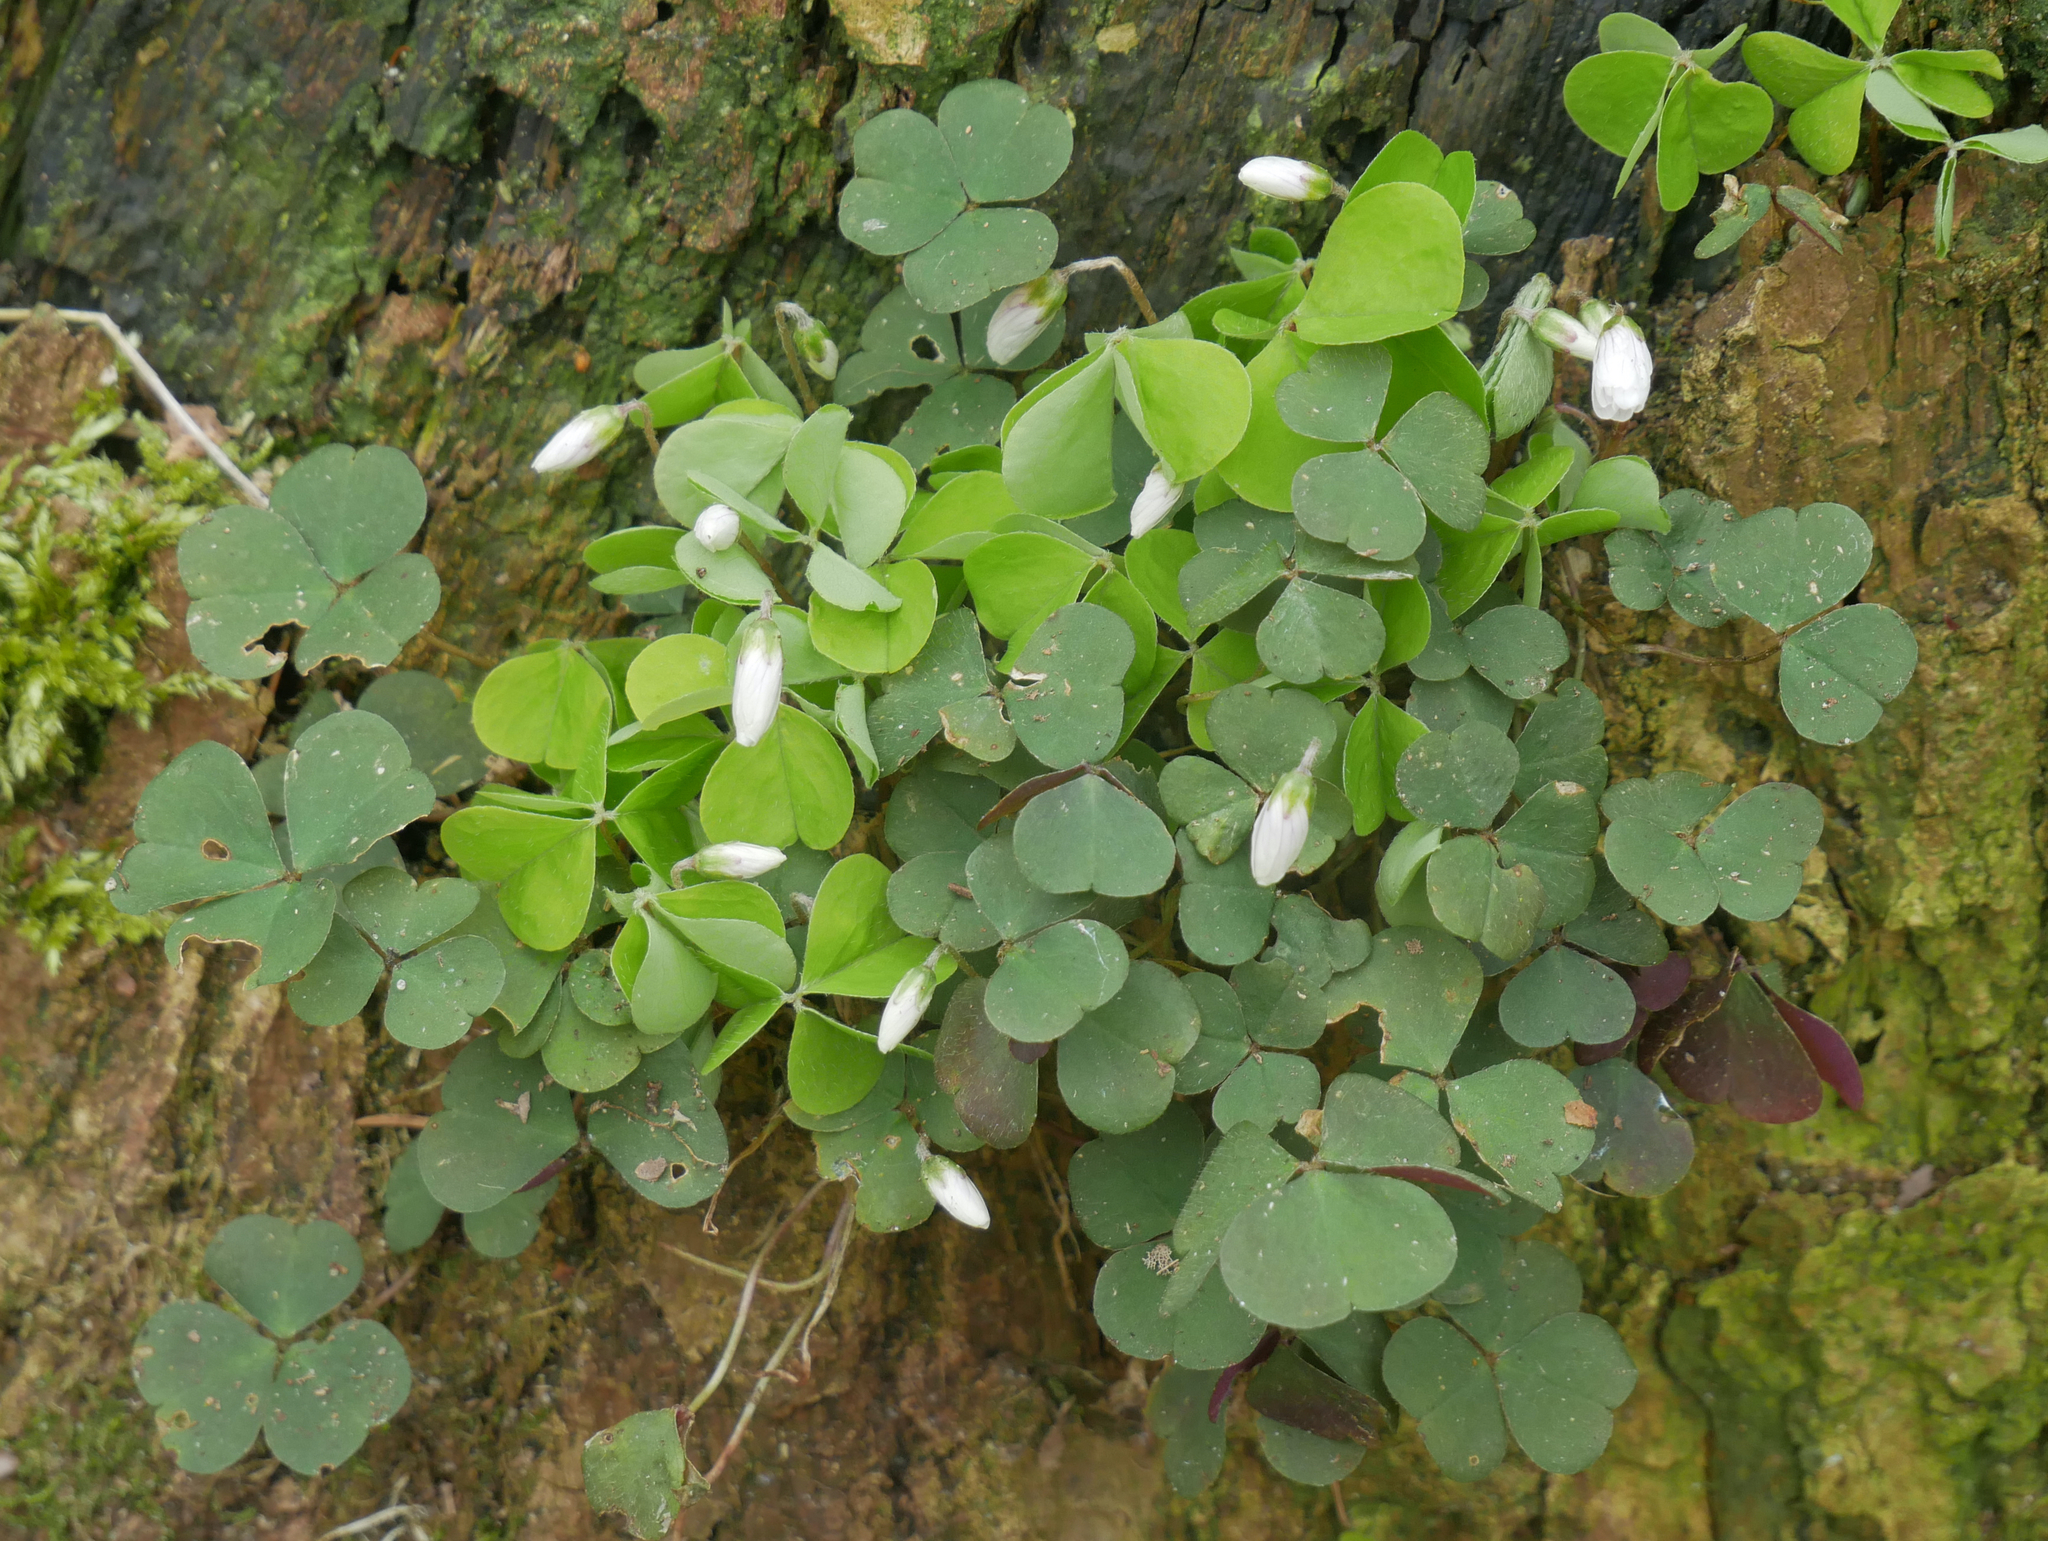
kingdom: Plantae
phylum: Tracheophyta
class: Magnoliopsida
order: Oxalidales
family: Oxalidaceae
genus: Oxalis
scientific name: Oxalis acetosella
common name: Wood-sorrel
